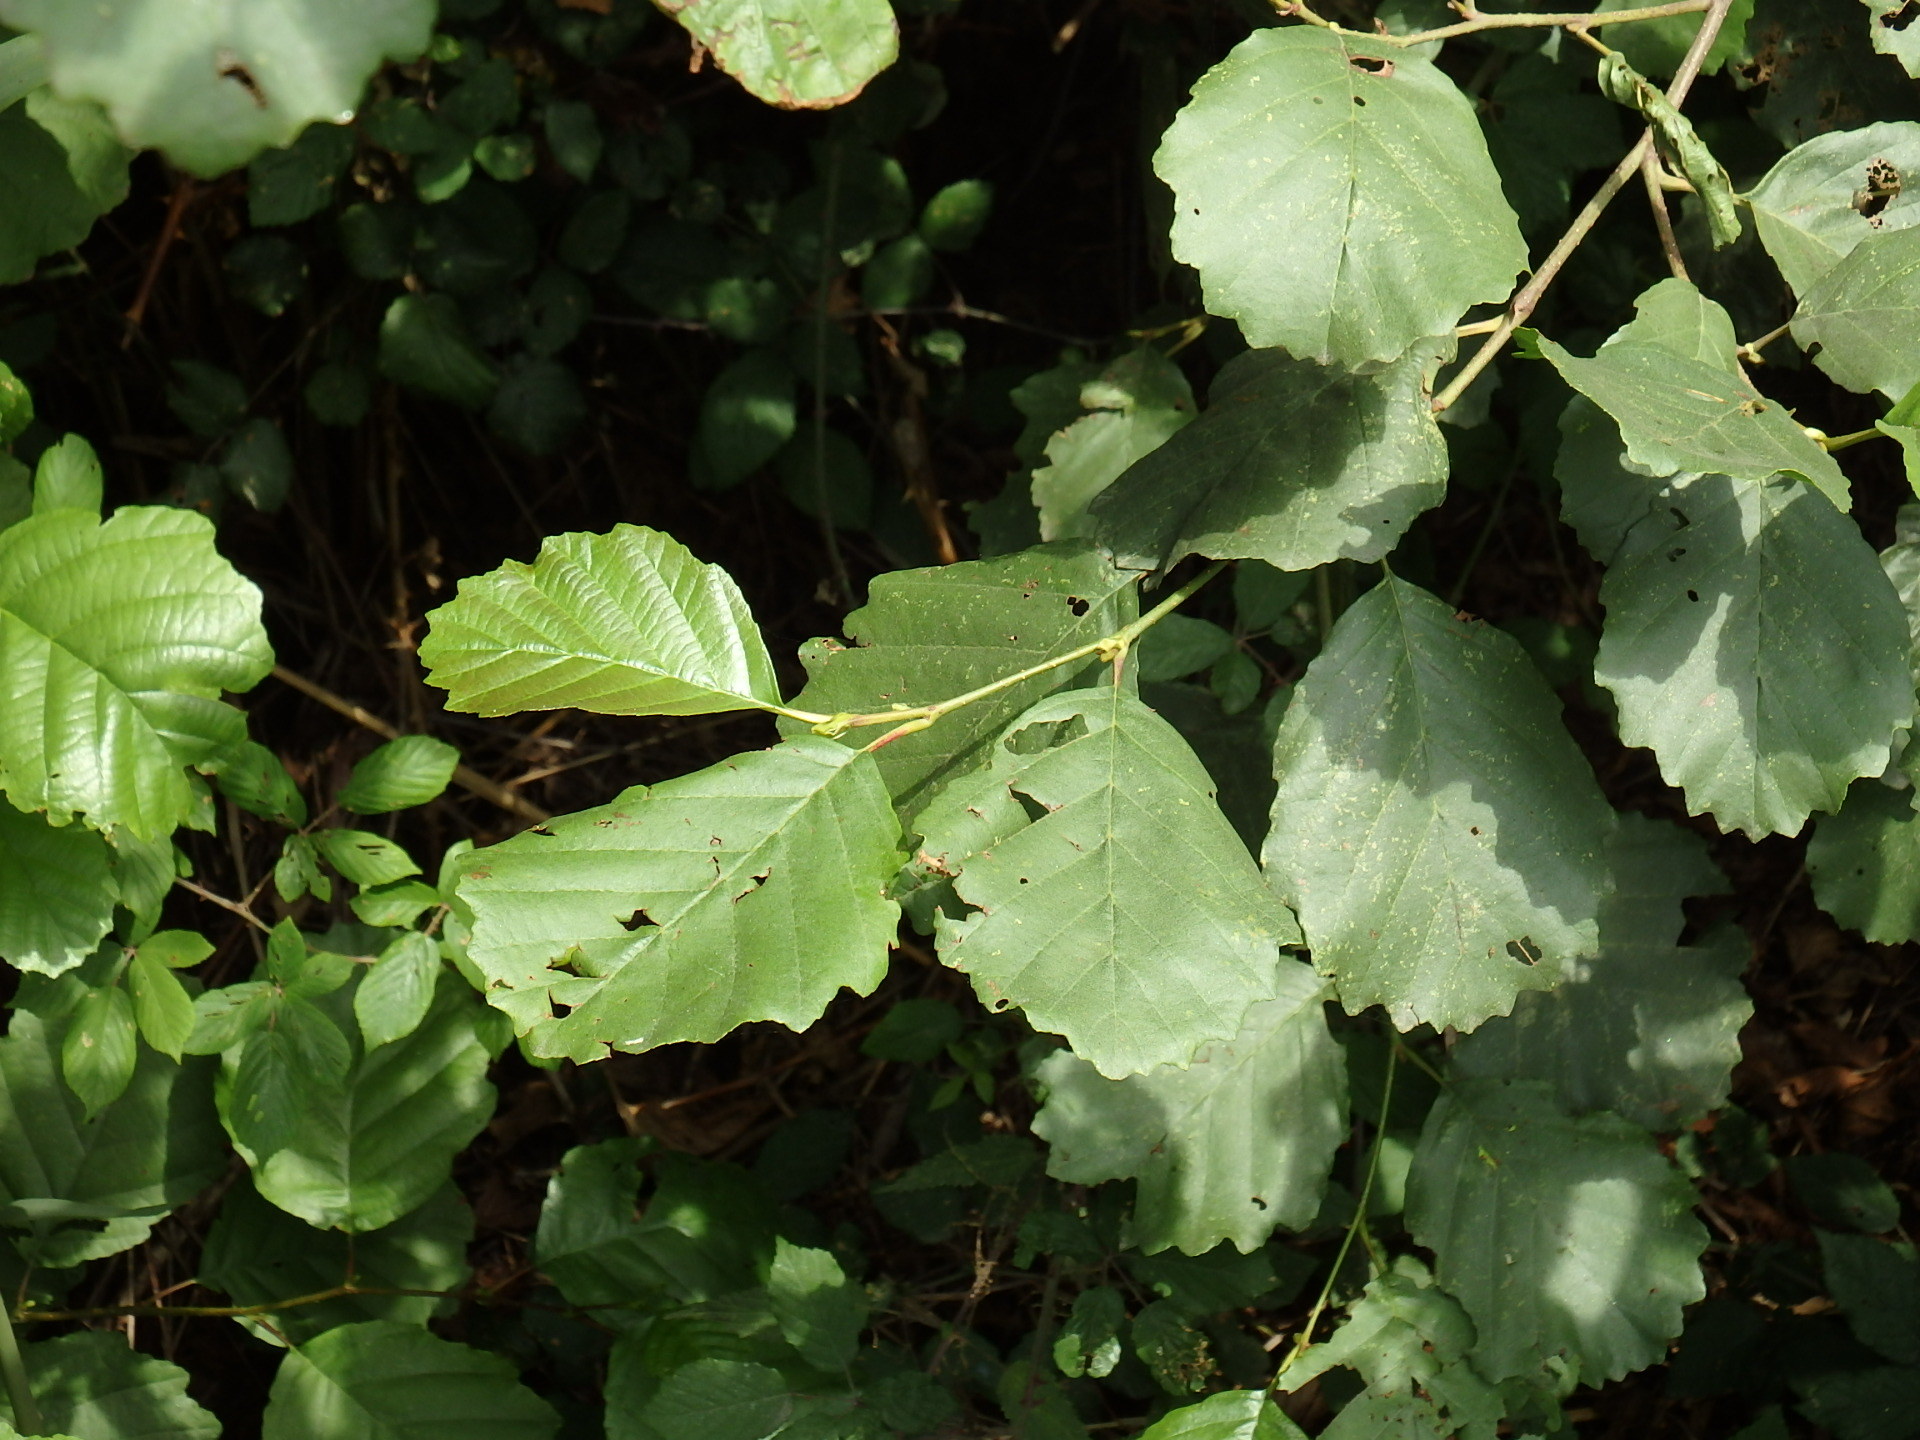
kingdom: Plantae
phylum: Tracheophyta
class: Magnoliopsida
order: Fagales
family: Betulaceae
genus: Alnus
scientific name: Alnus lusitanica
